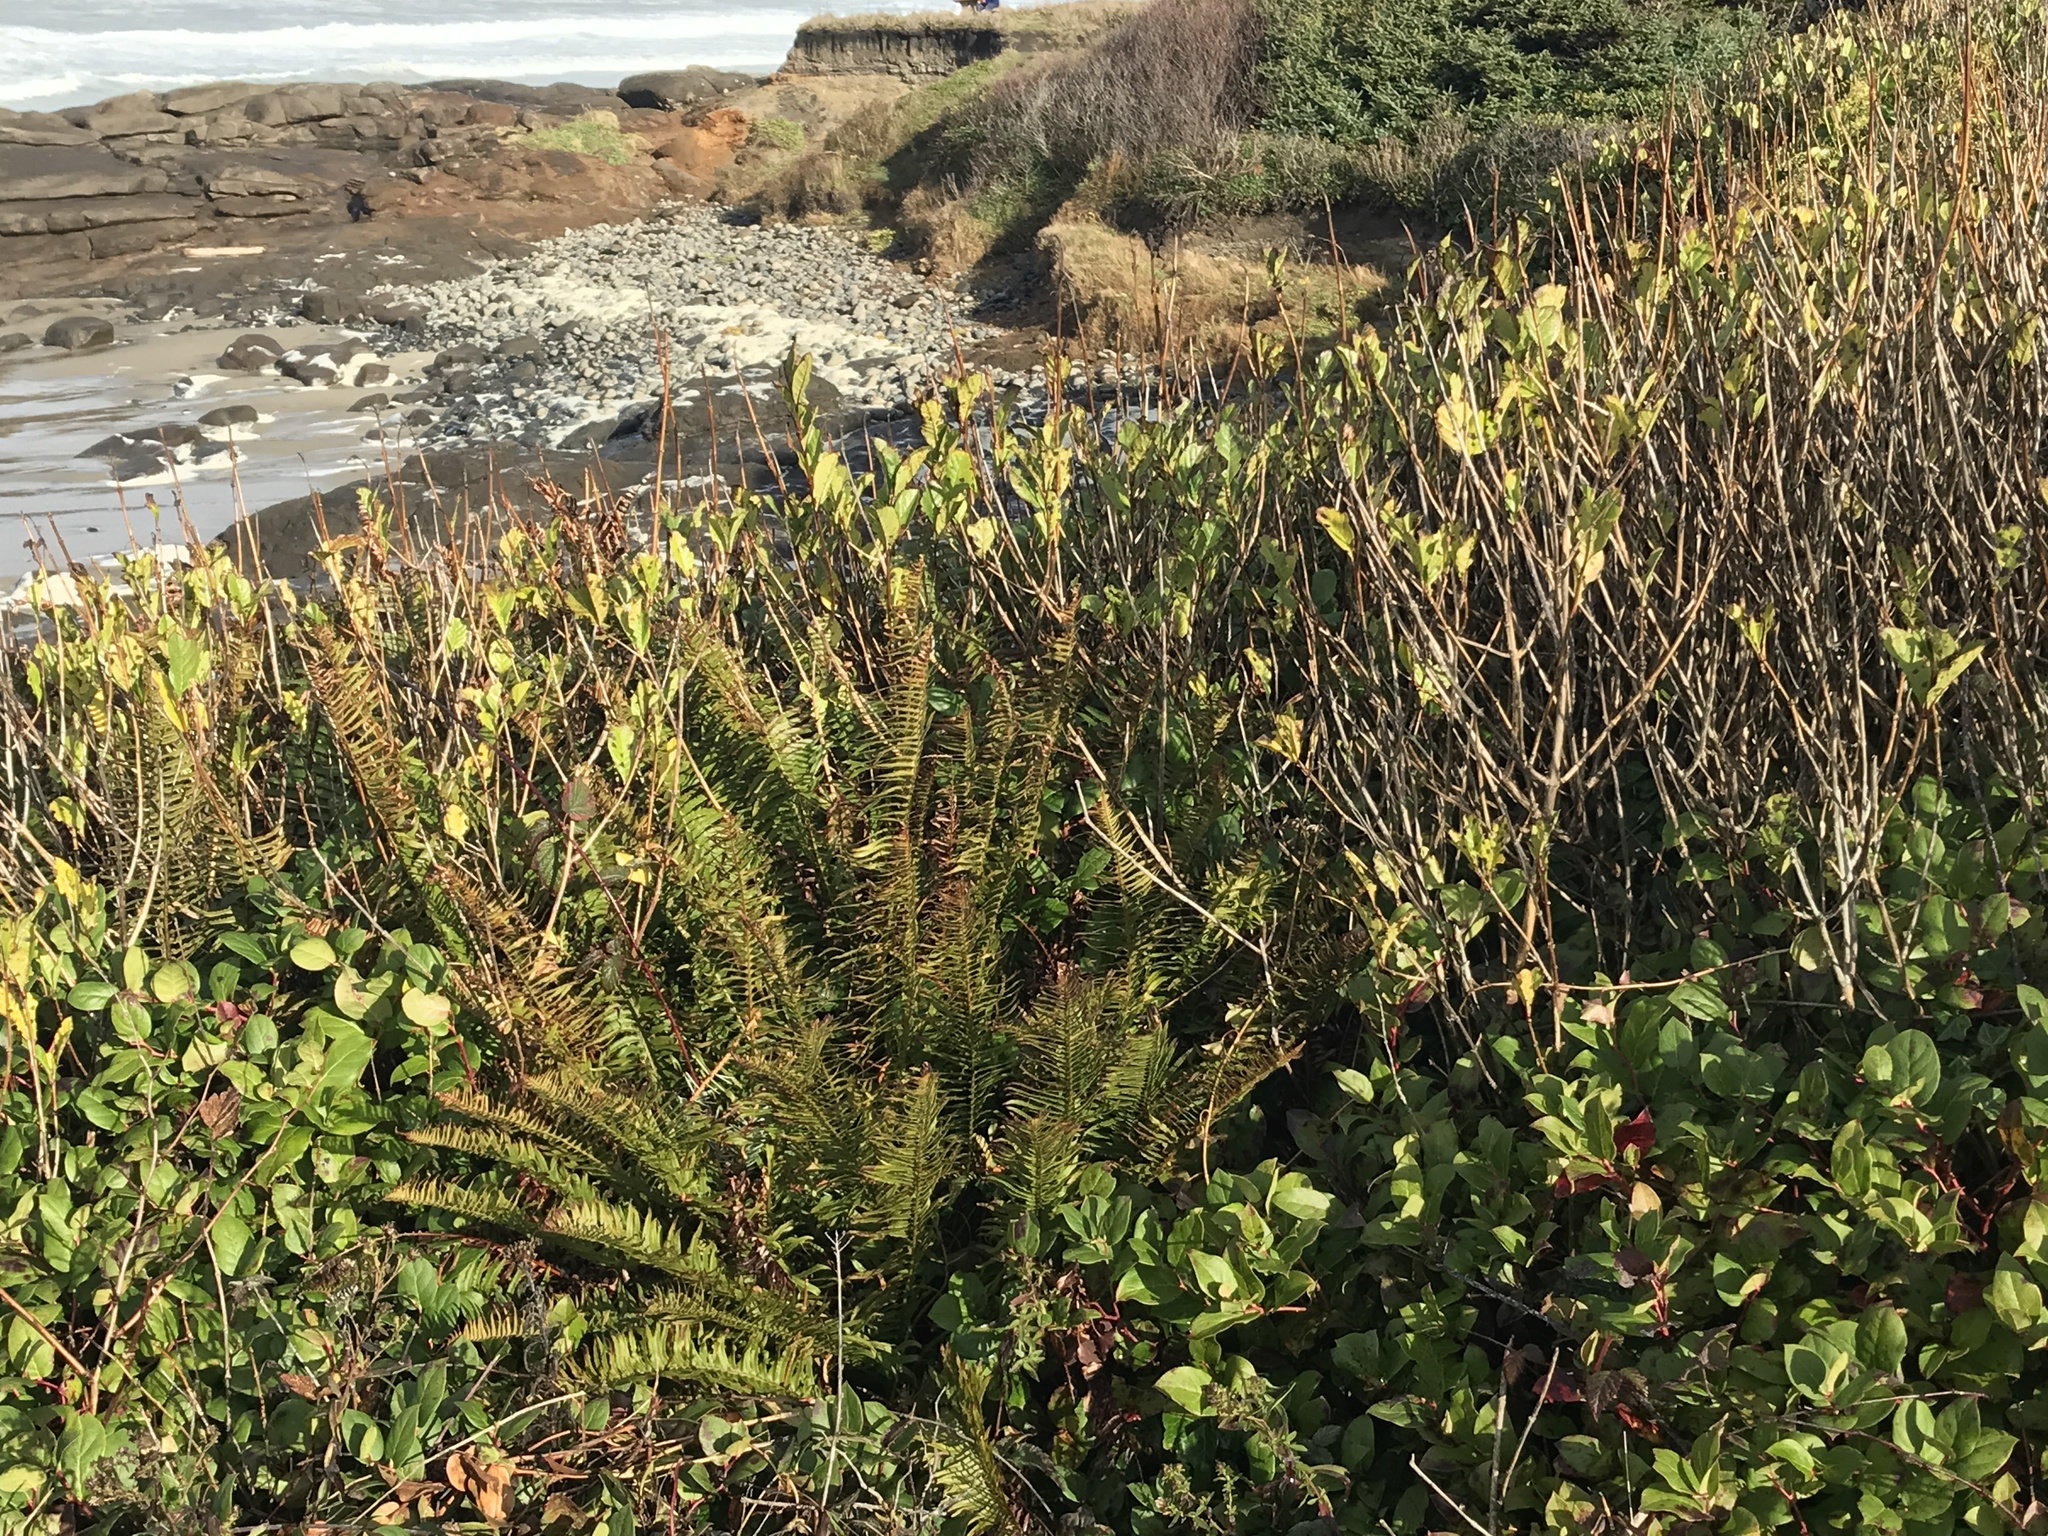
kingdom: Plantae
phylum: Tracheophyta
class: Polypodiopsida
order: Polypodiales
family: Dryopteridaceae
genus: Polystichum
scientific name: Polystichum munitum
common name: Western sword-fern
